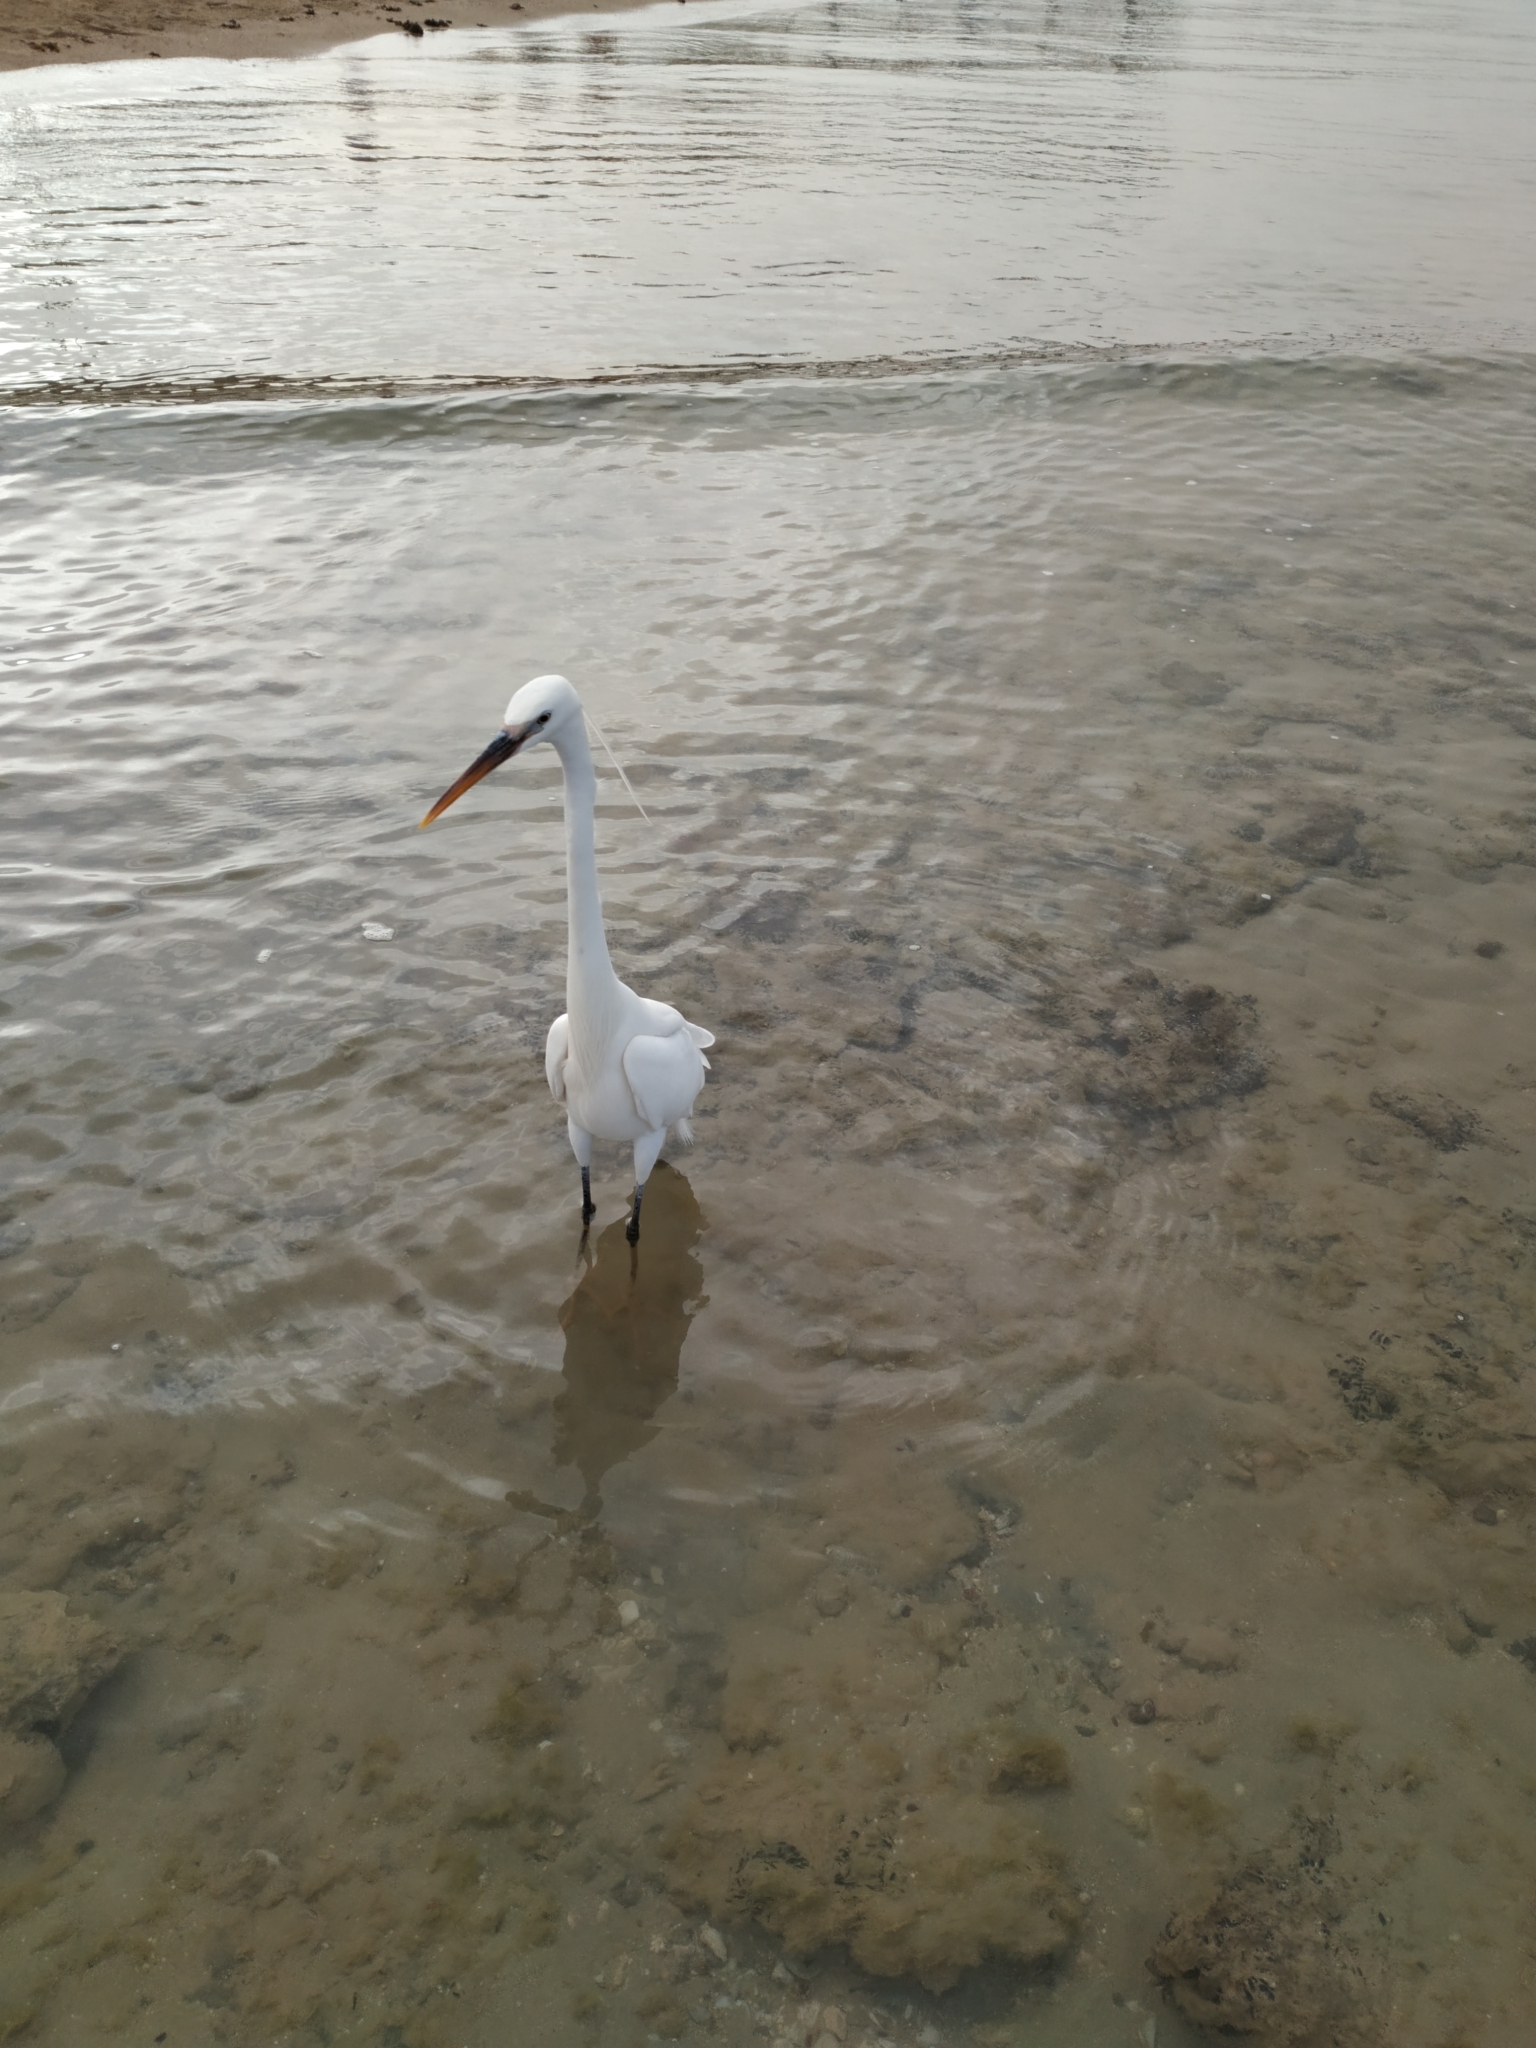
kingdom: Animalia
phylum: Chordata
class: Aves
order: Pelecaniformes
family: Ardeidae
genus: Egretta
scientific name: Egretta gularis
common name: Western reef-heron
